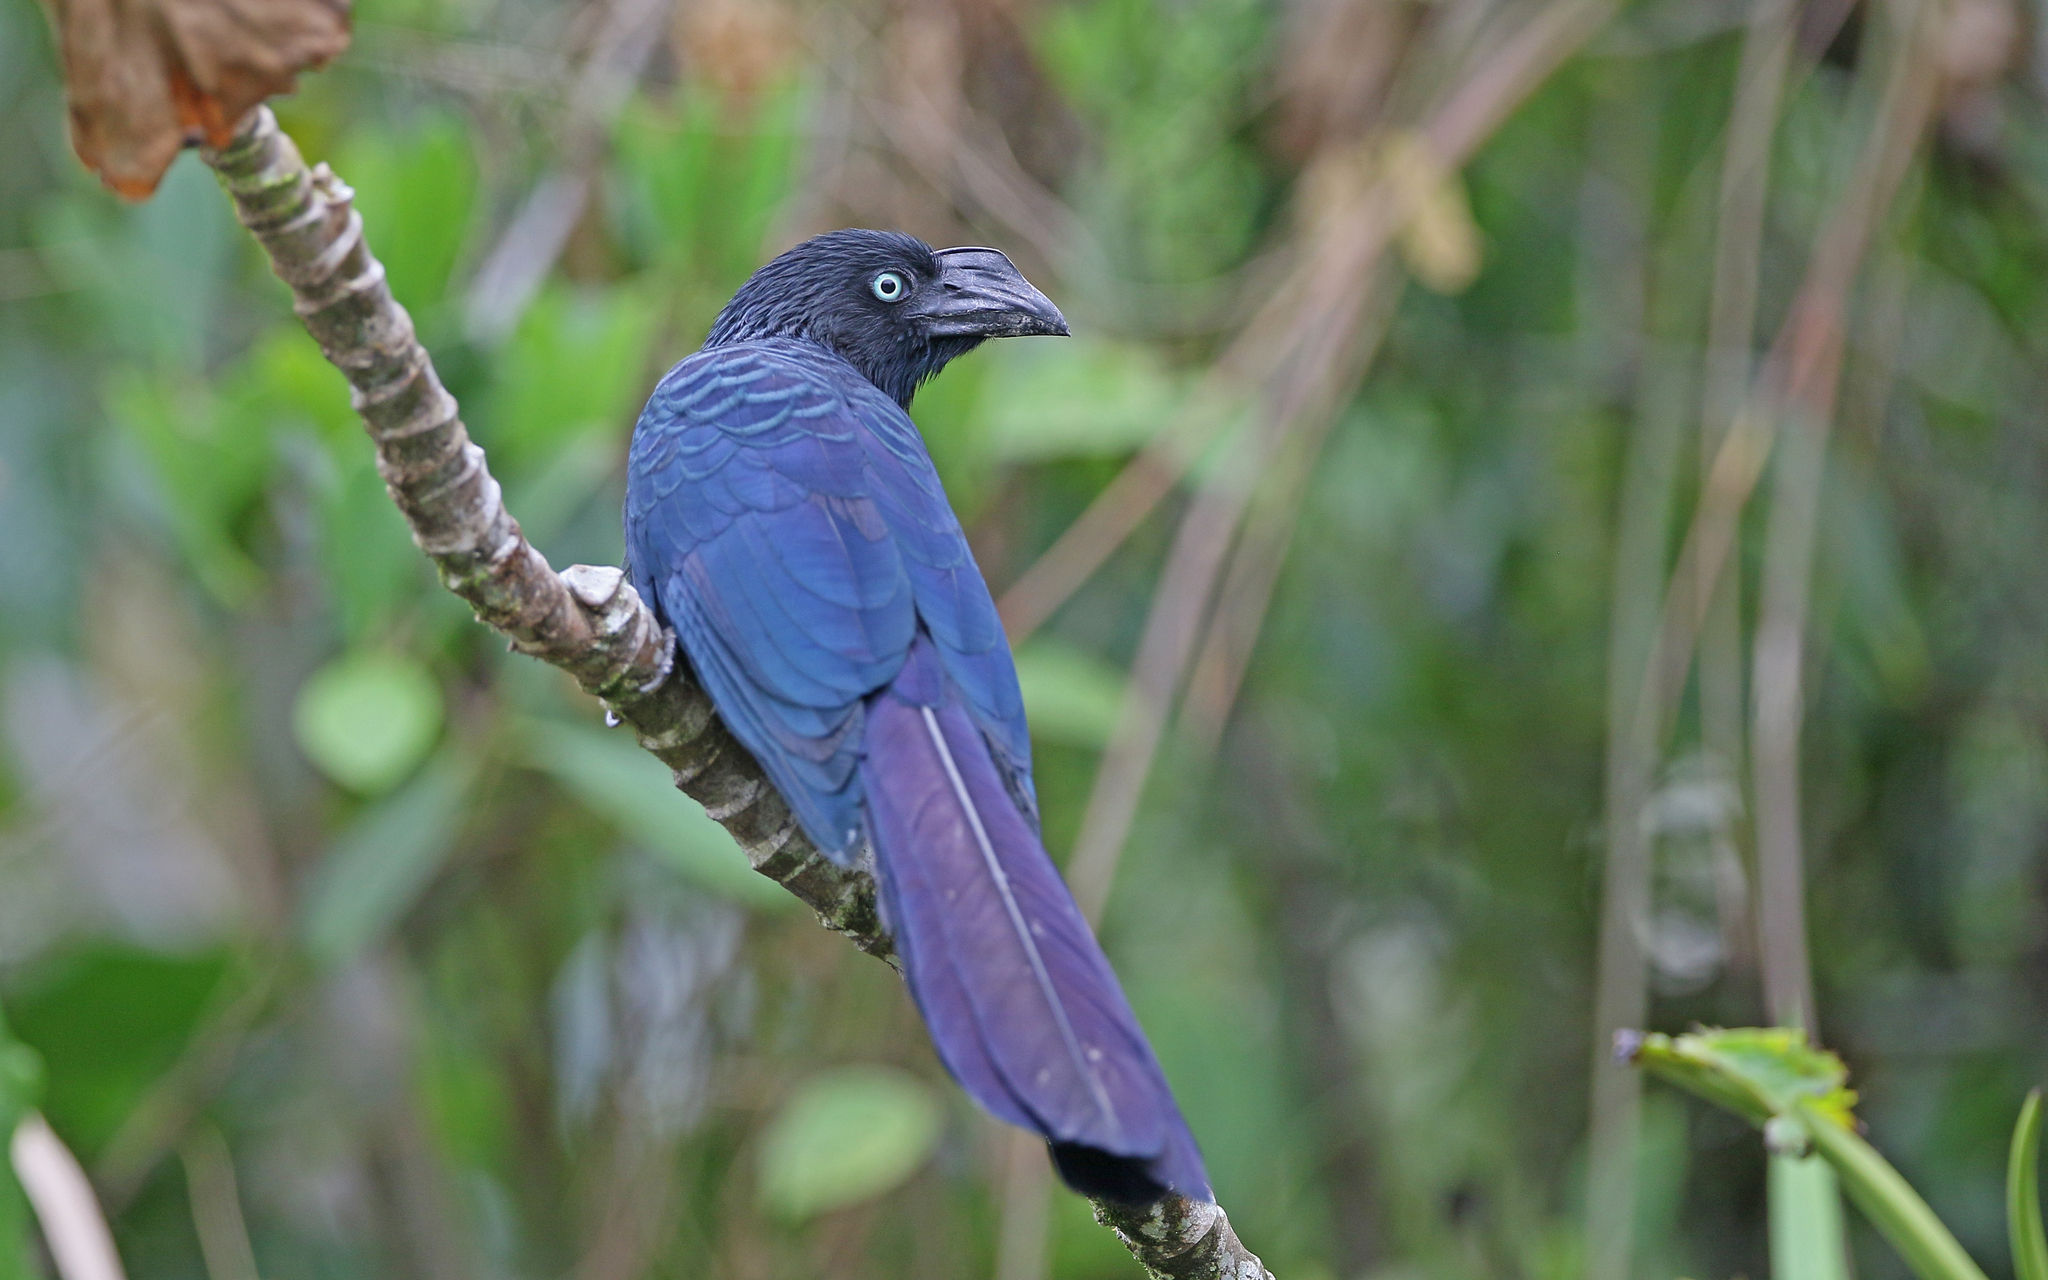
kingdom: Animalia
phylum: Chordata
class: Aves
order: Cuculiformes
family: Cuculidae
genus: Crotophaga
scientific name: Crotophaga major
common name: Greater ani
